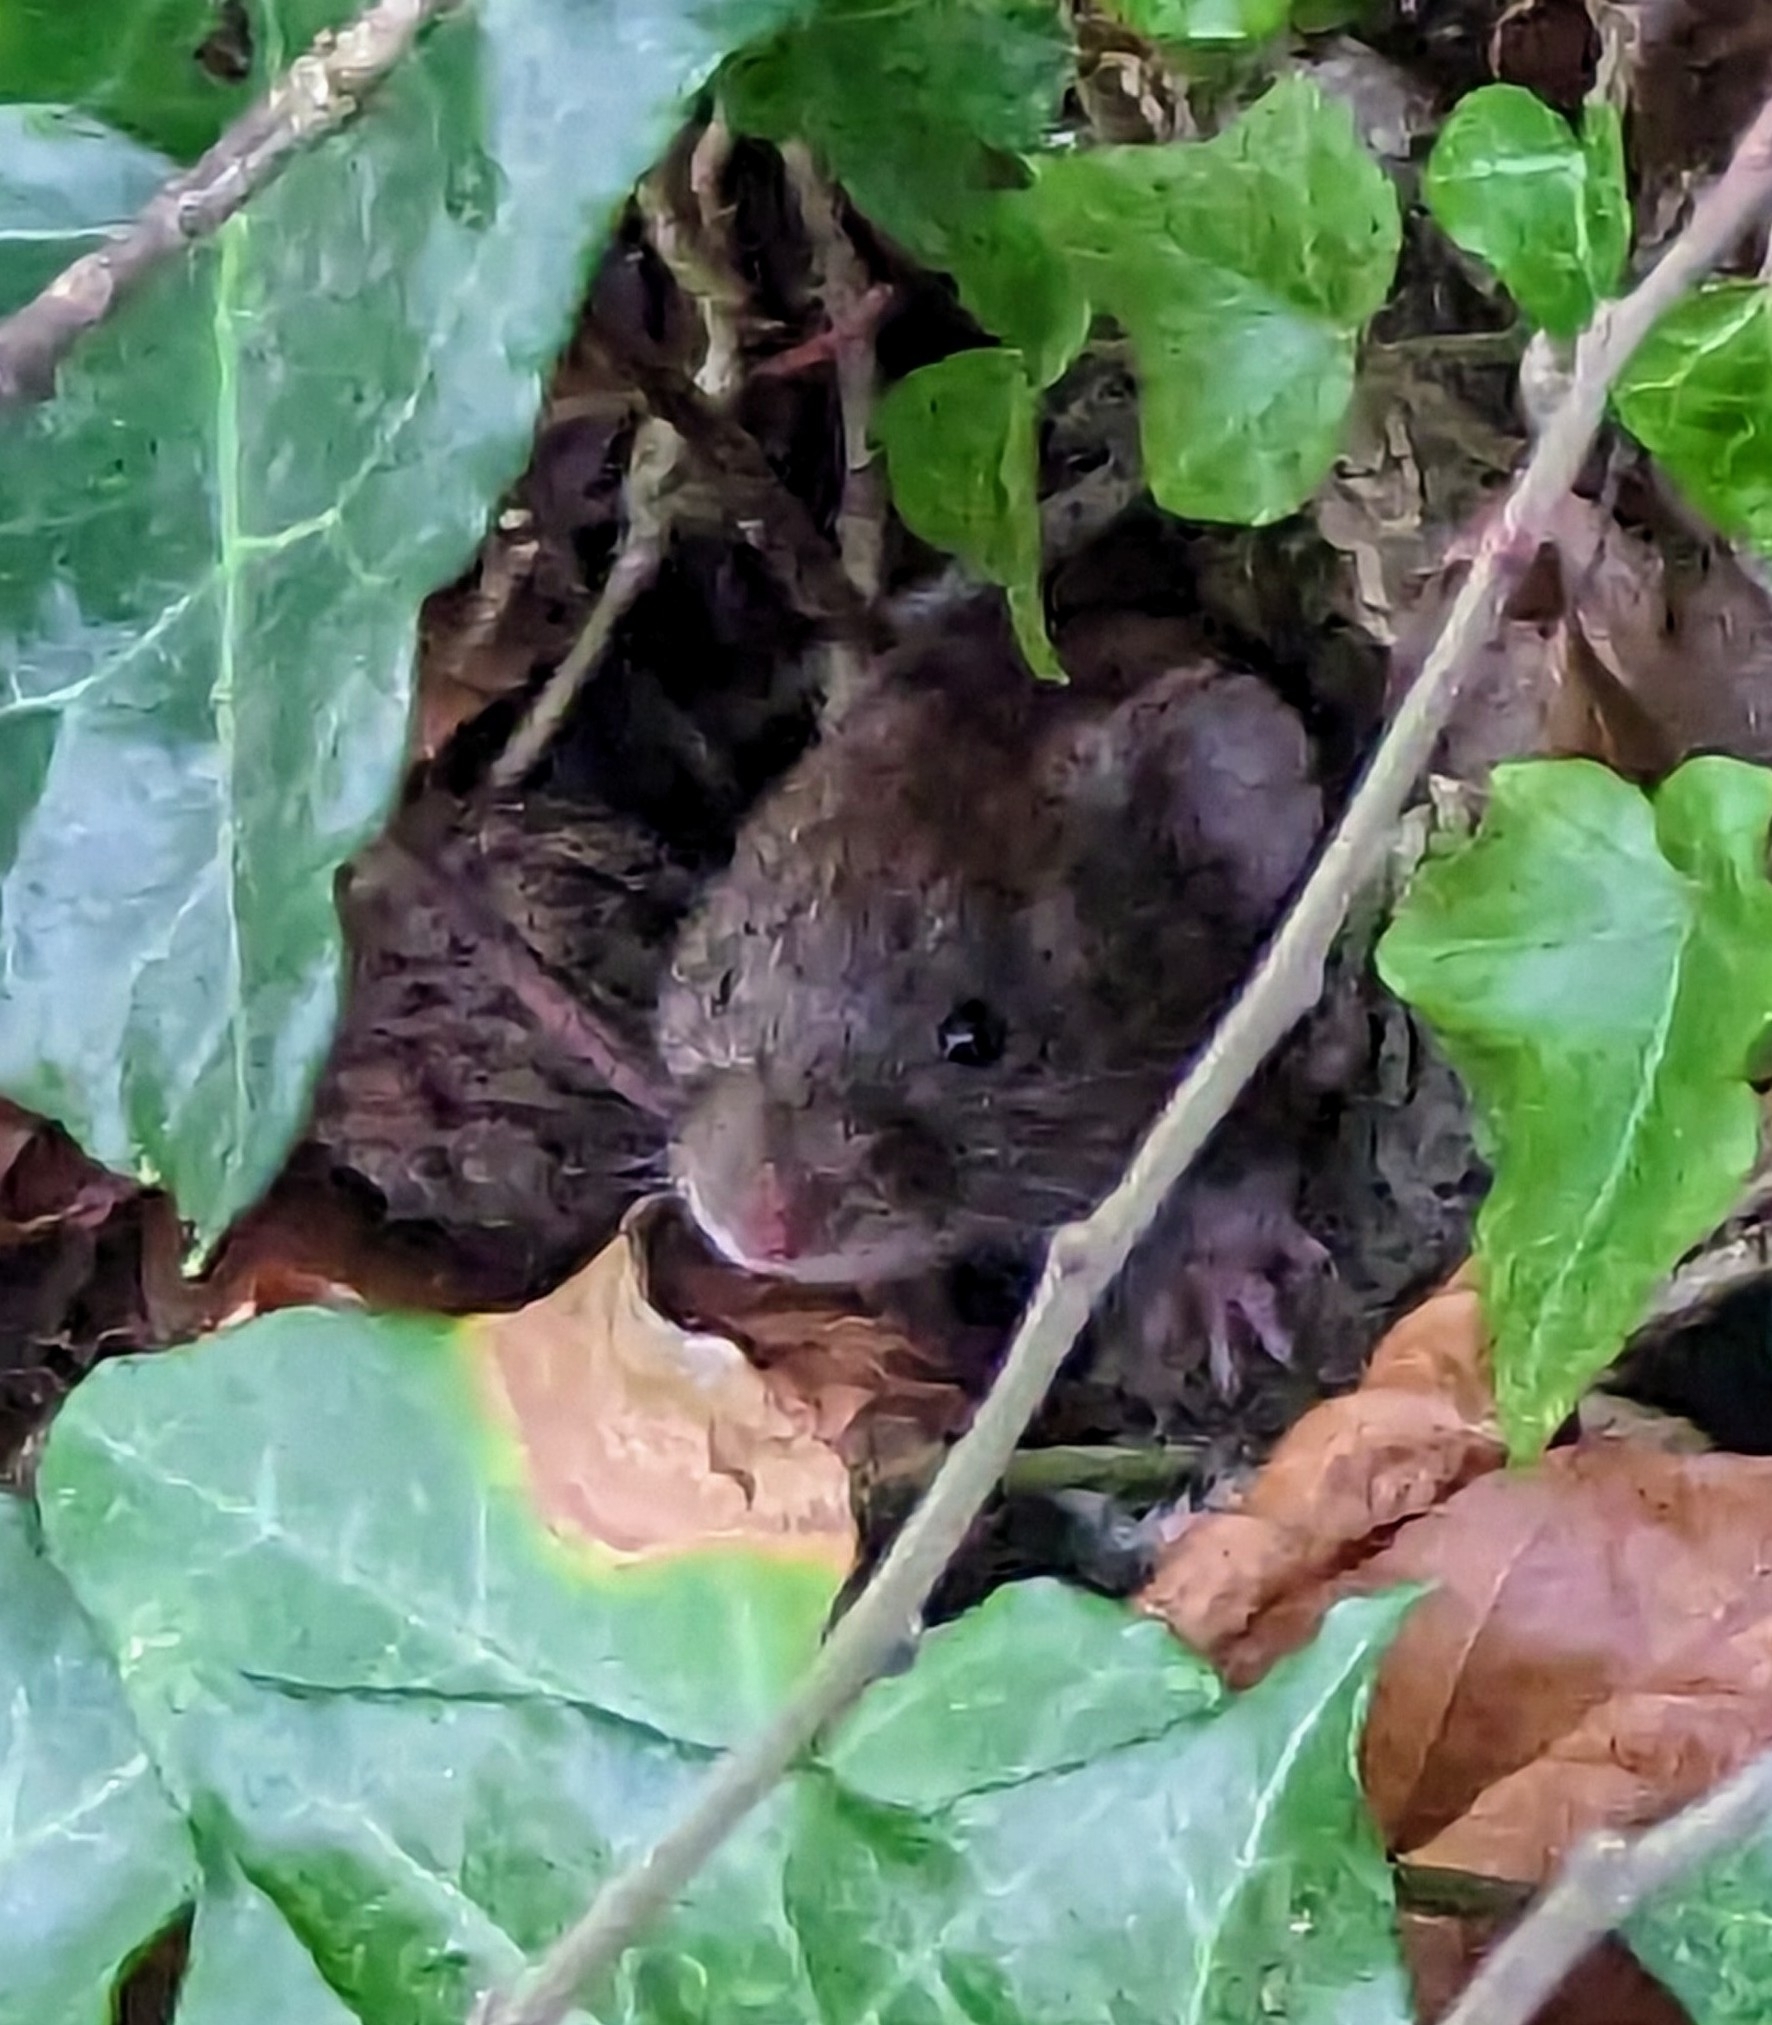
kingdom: Animalia
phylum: Chordata
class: Mammalia
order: Rodentia
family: Cricetidae
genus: Myodes
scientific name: Myodes glareolus
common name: Bank vole
